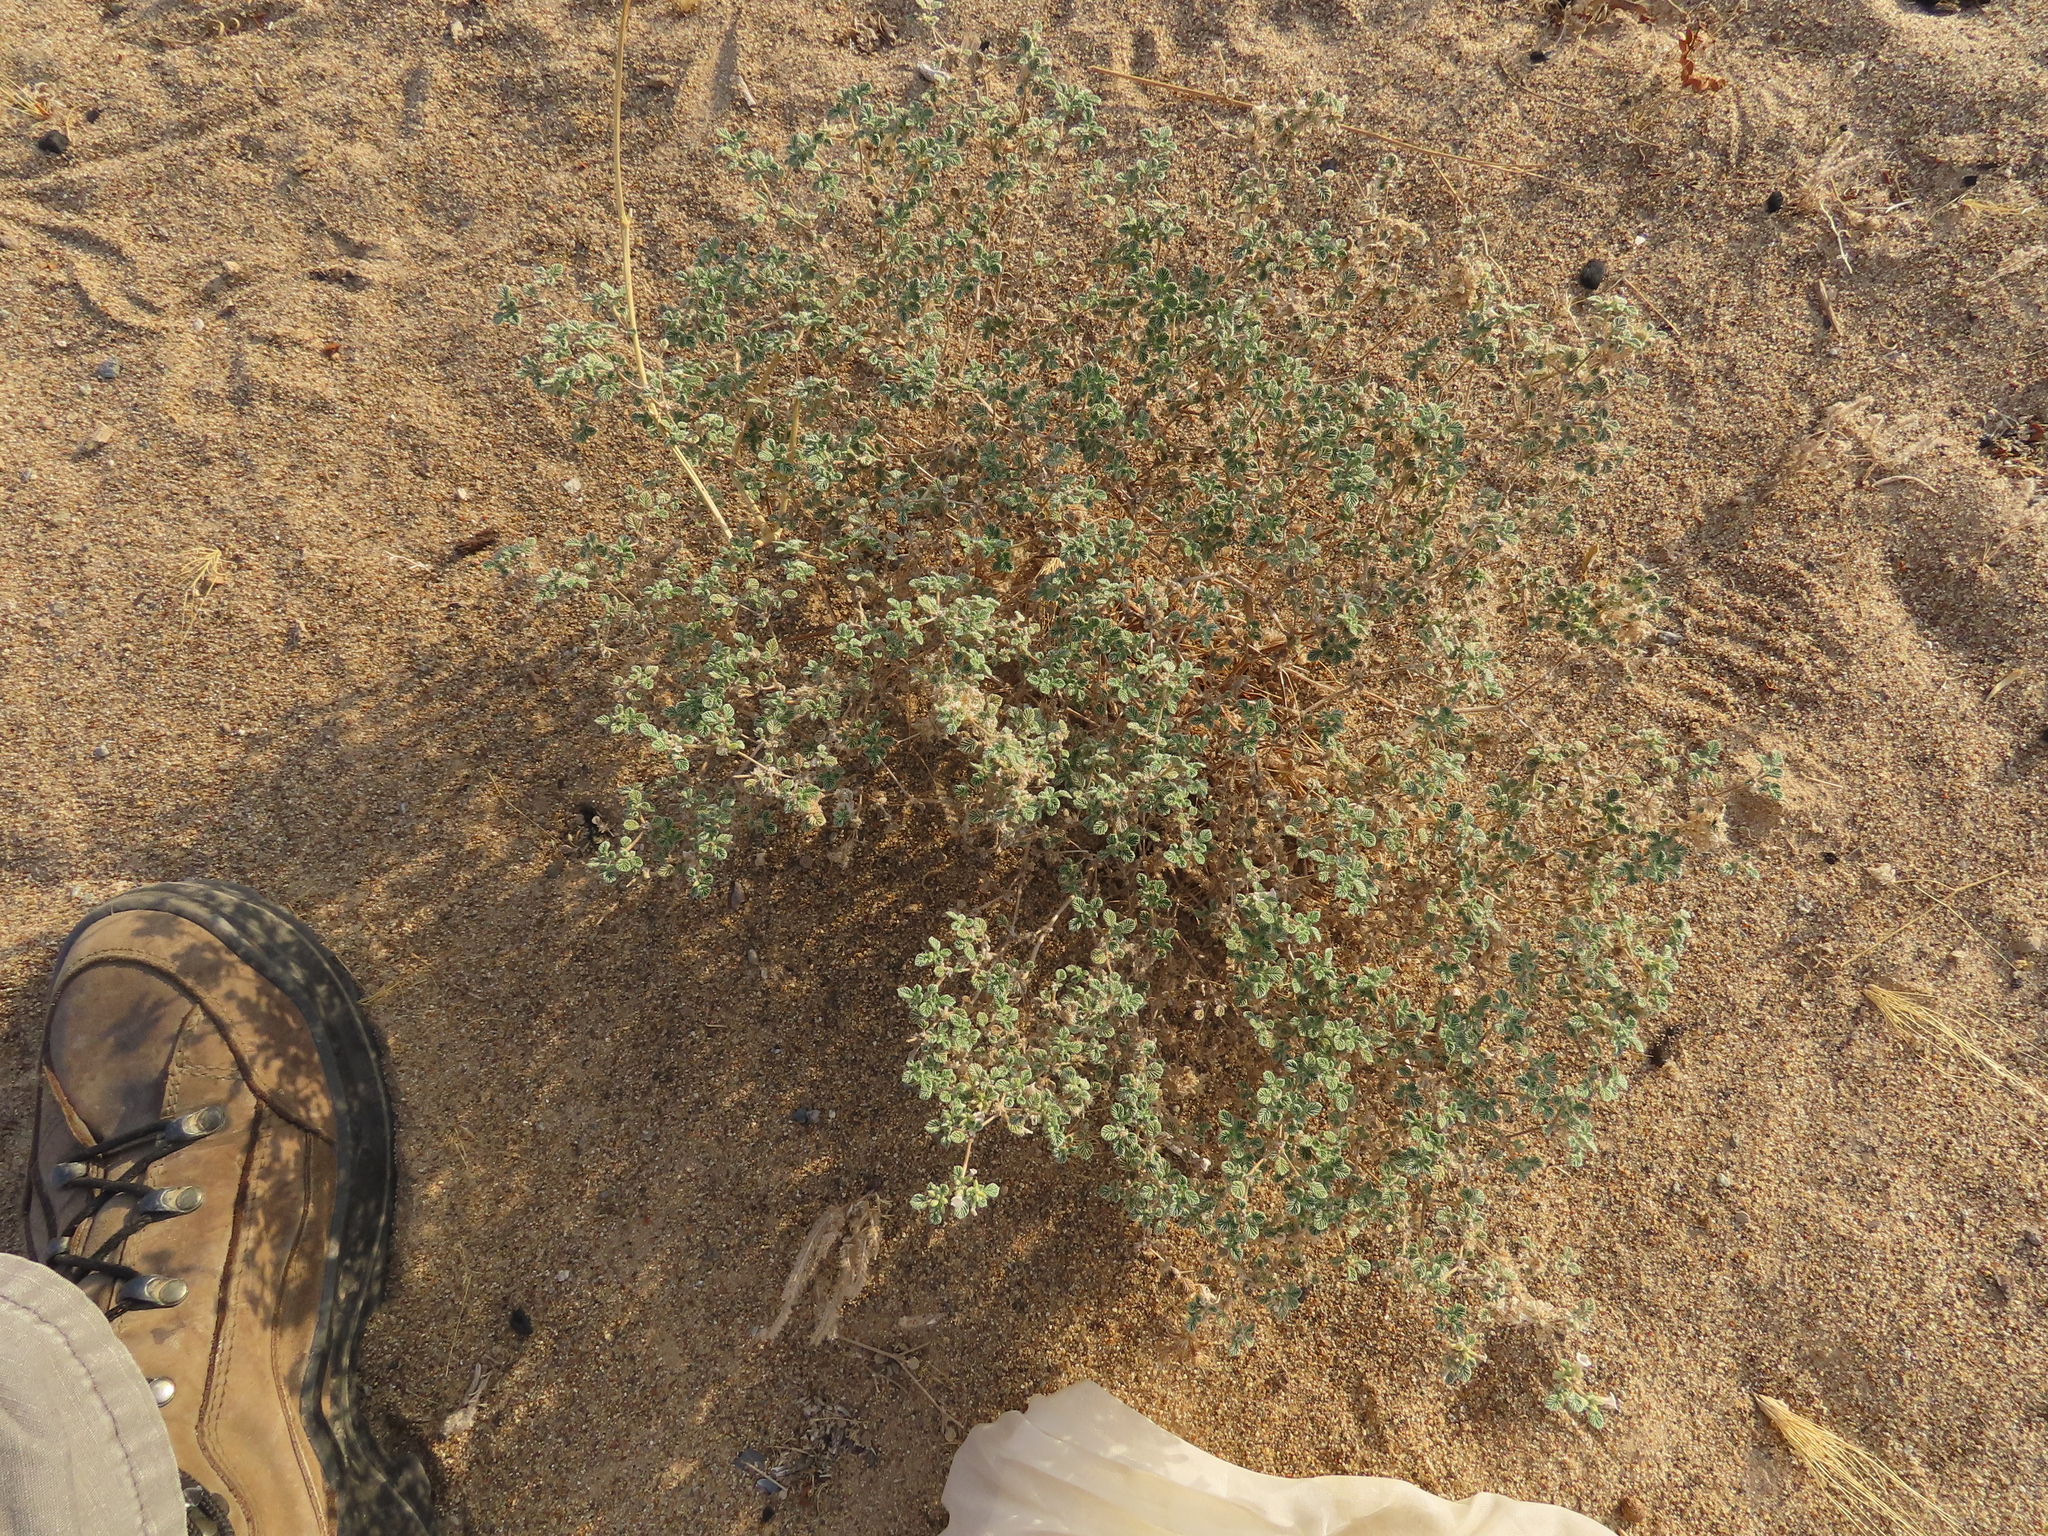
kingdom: Plantae
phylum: Tracheophyta
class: Magnoliopsida
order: Boraginales
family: Ehretiaceae
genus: Tiquilia
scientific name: Tiquilia plicata
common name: Fan-leaf tiquilia
